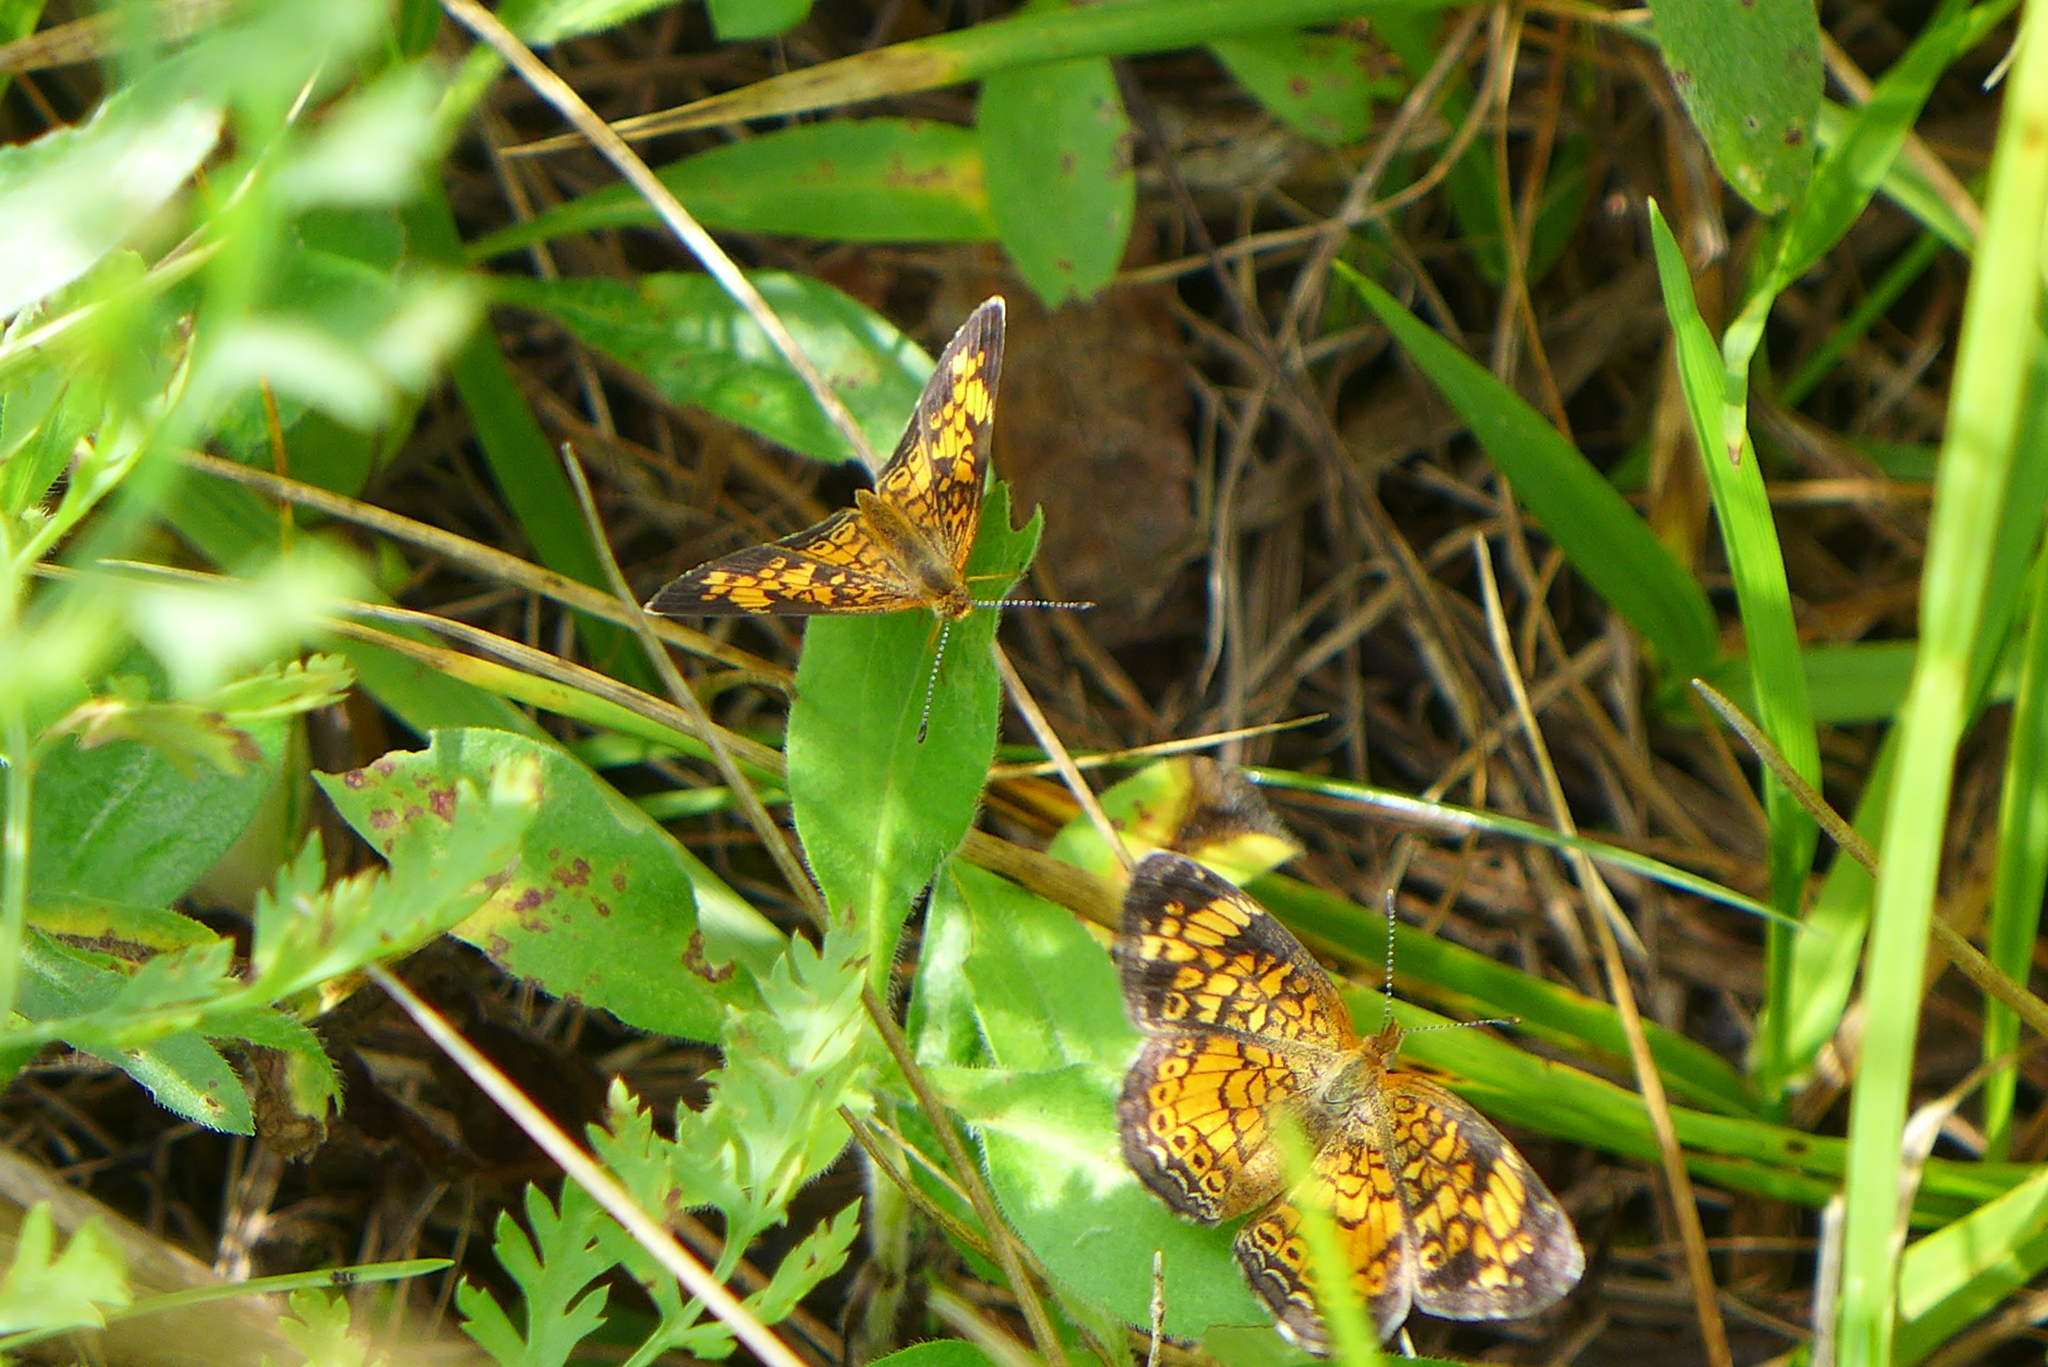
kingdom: Animalia
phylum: Arthropoda
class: Insecta
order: Lepidoptera
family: Nymphalidae
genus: Phyciodes
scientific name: Phyciodes tharos
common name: Pearl crescent
